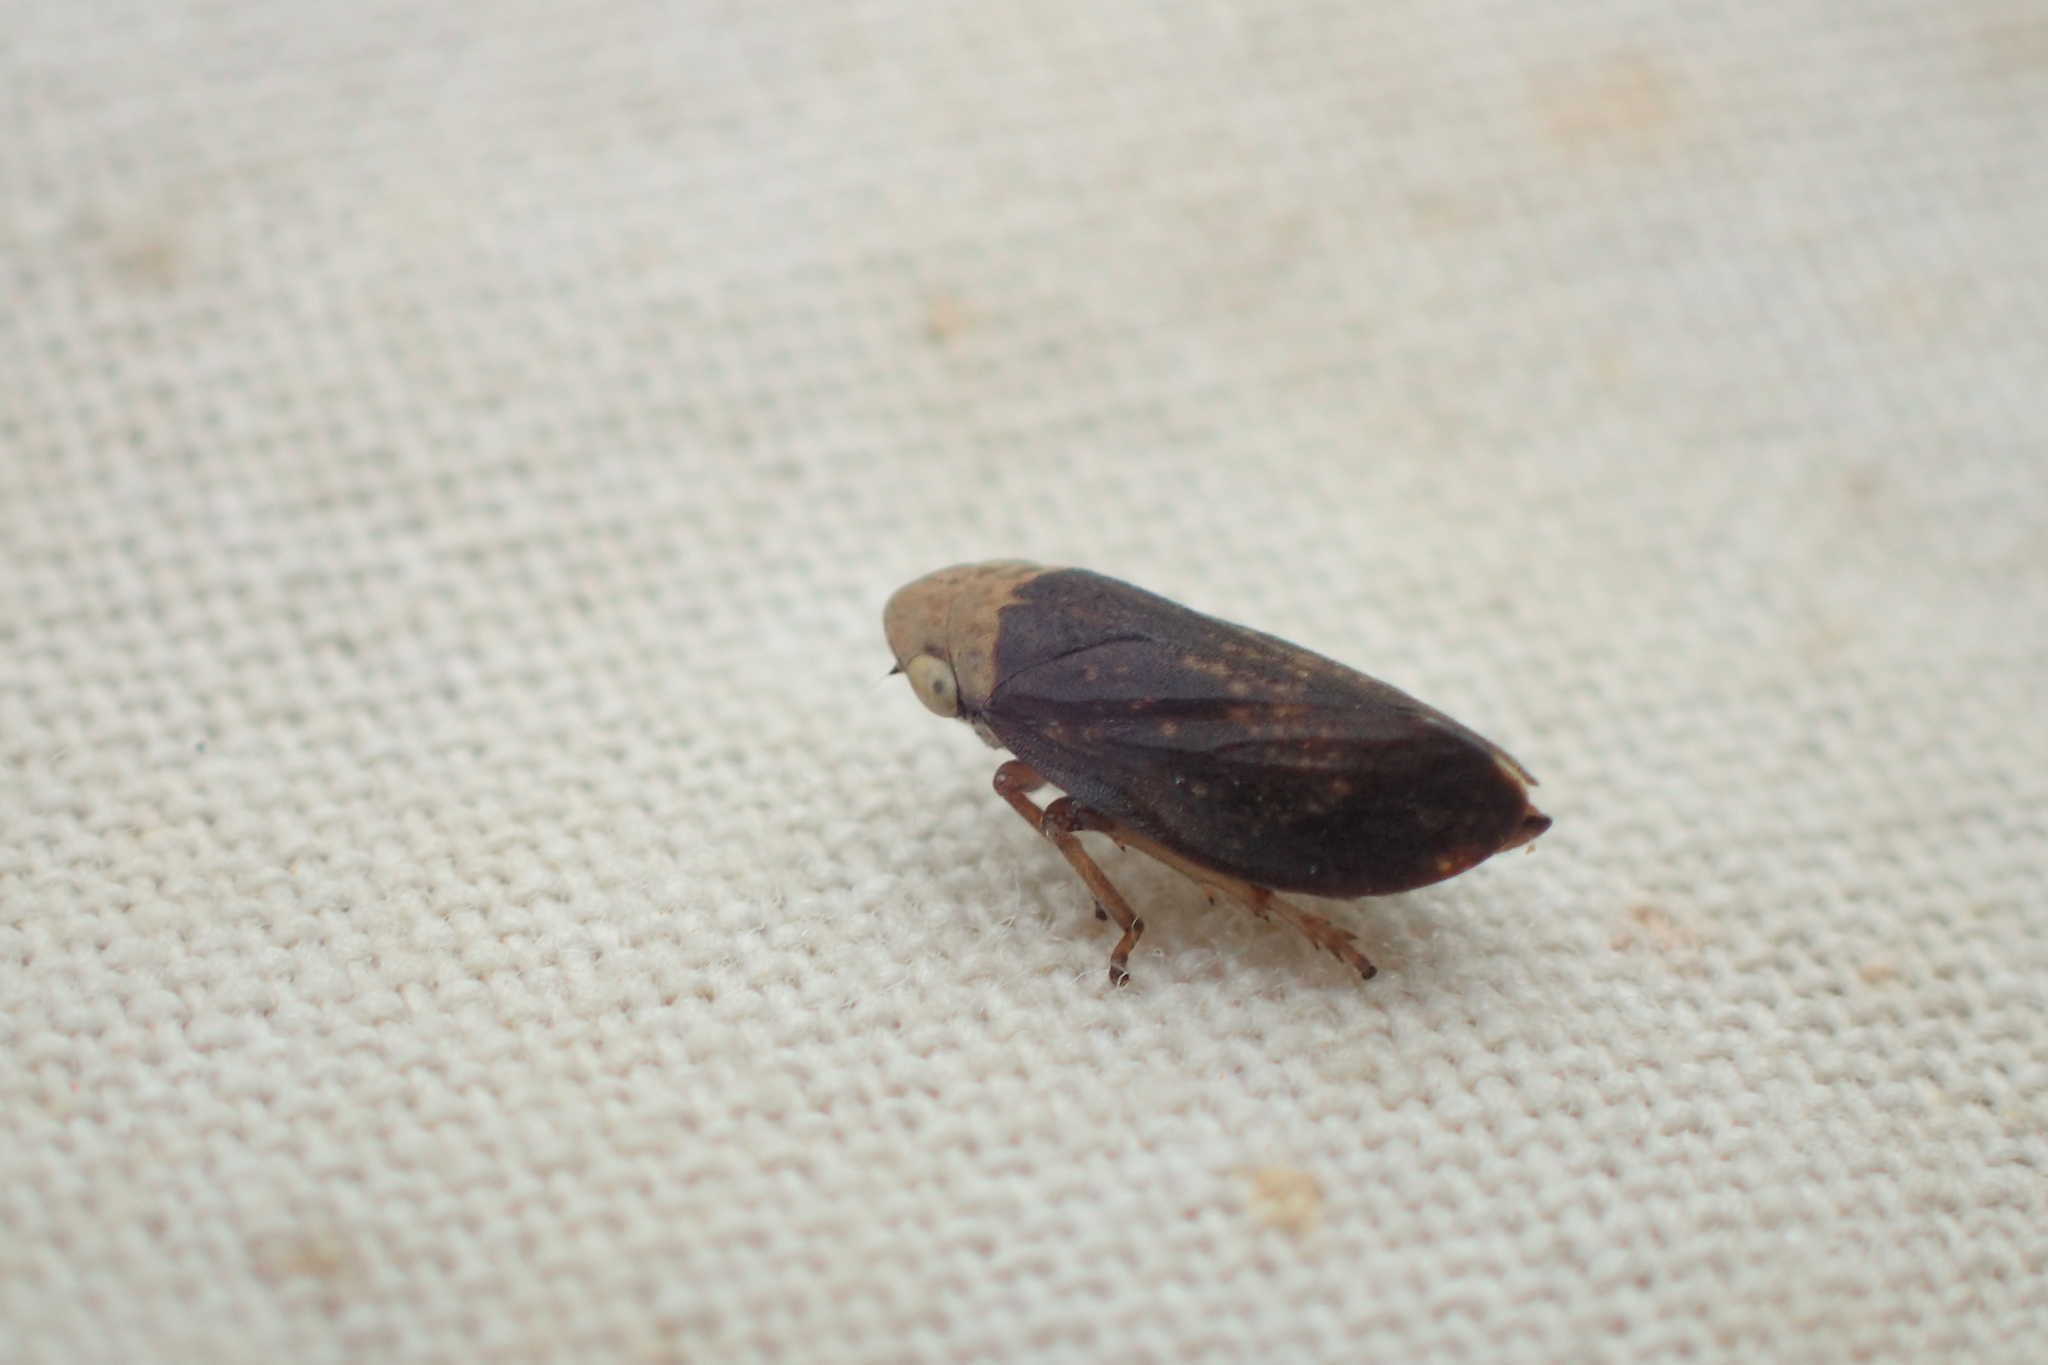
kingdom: Animalia
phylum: Arthropoda
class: Insecta
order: Hemiptera
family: Aphrophoridae
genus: Philaenus
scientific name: Philaenus spumarius
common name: Meadow spittlebug
